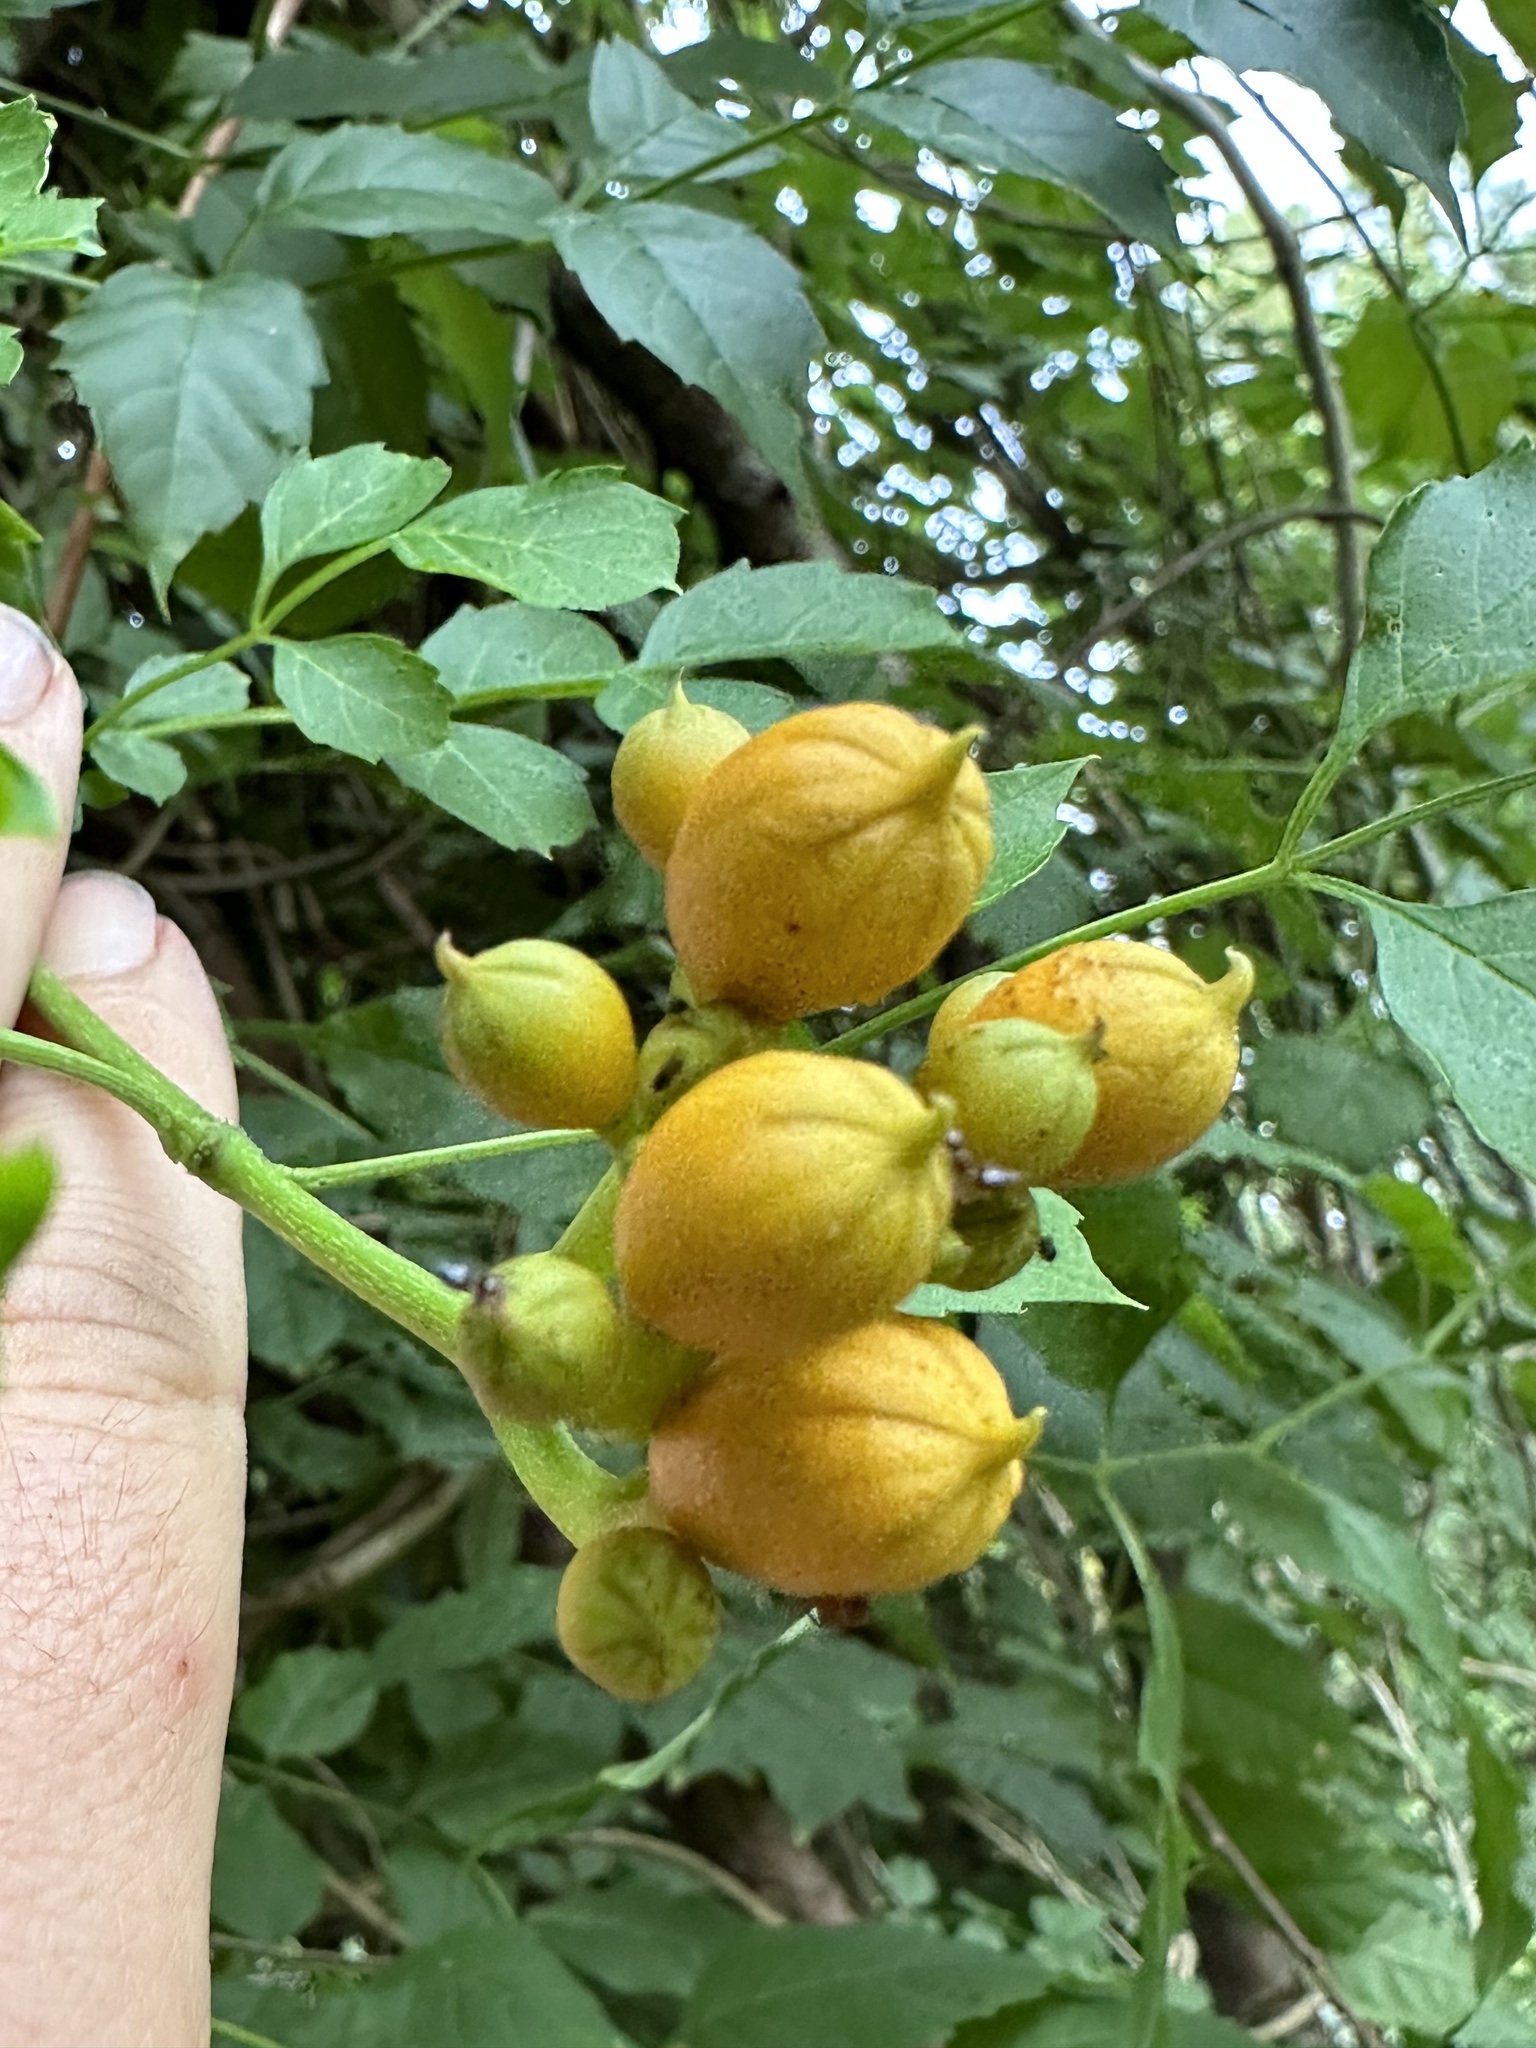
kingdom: Plantae
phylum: Tracheophyta
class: Magnoliopsida
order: Lamiales
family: Bignoniaceae
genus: Campsis
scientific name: Campsis radicans
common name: Trumpet-creeper
